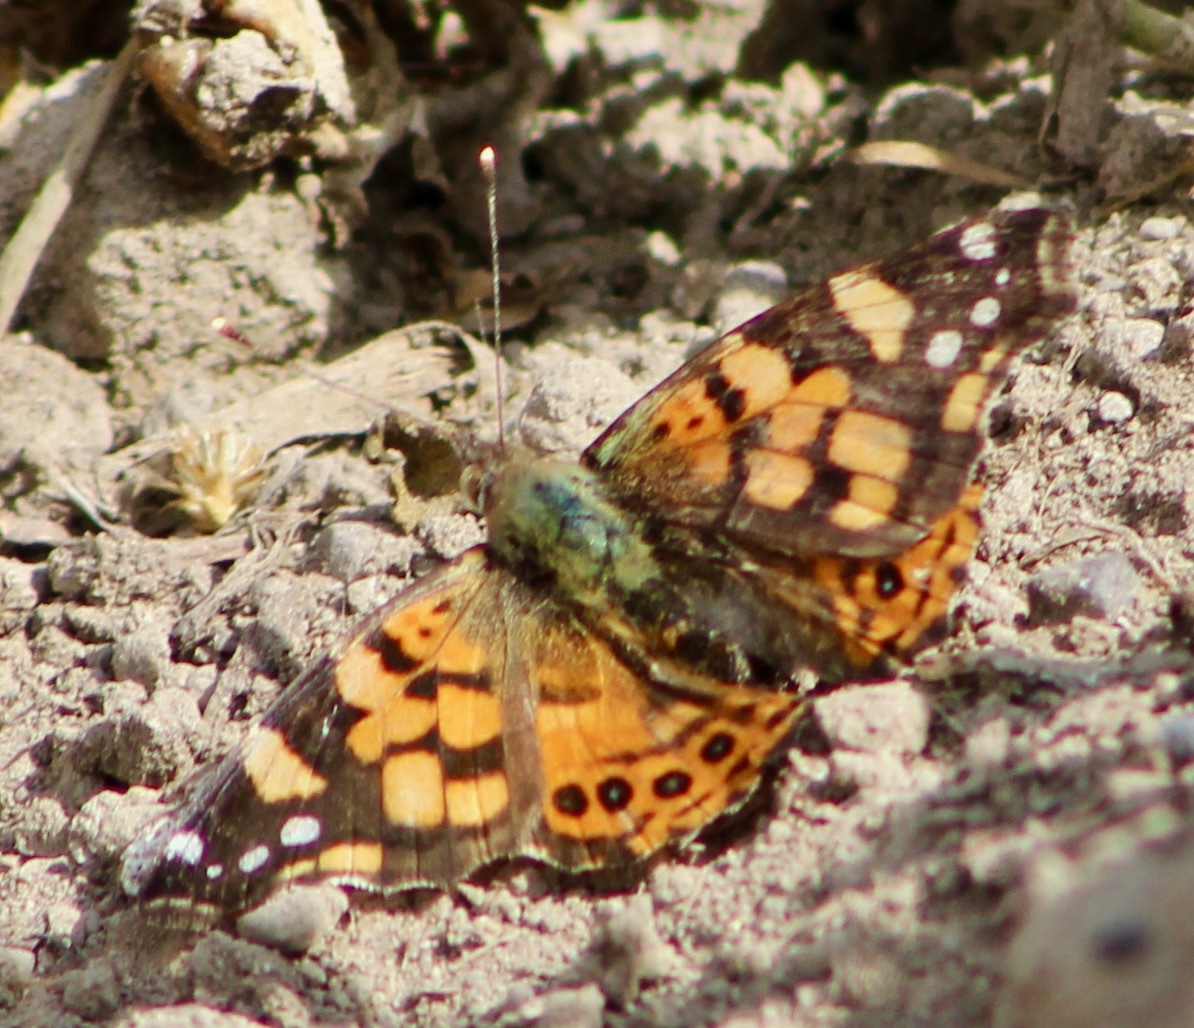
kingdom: Animalia
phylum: Arthropoda
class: Insecta
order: Lepidoptera
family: Nymphalidae
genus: Vanessa
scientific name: Vanessa carye
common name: Subtropical lady
